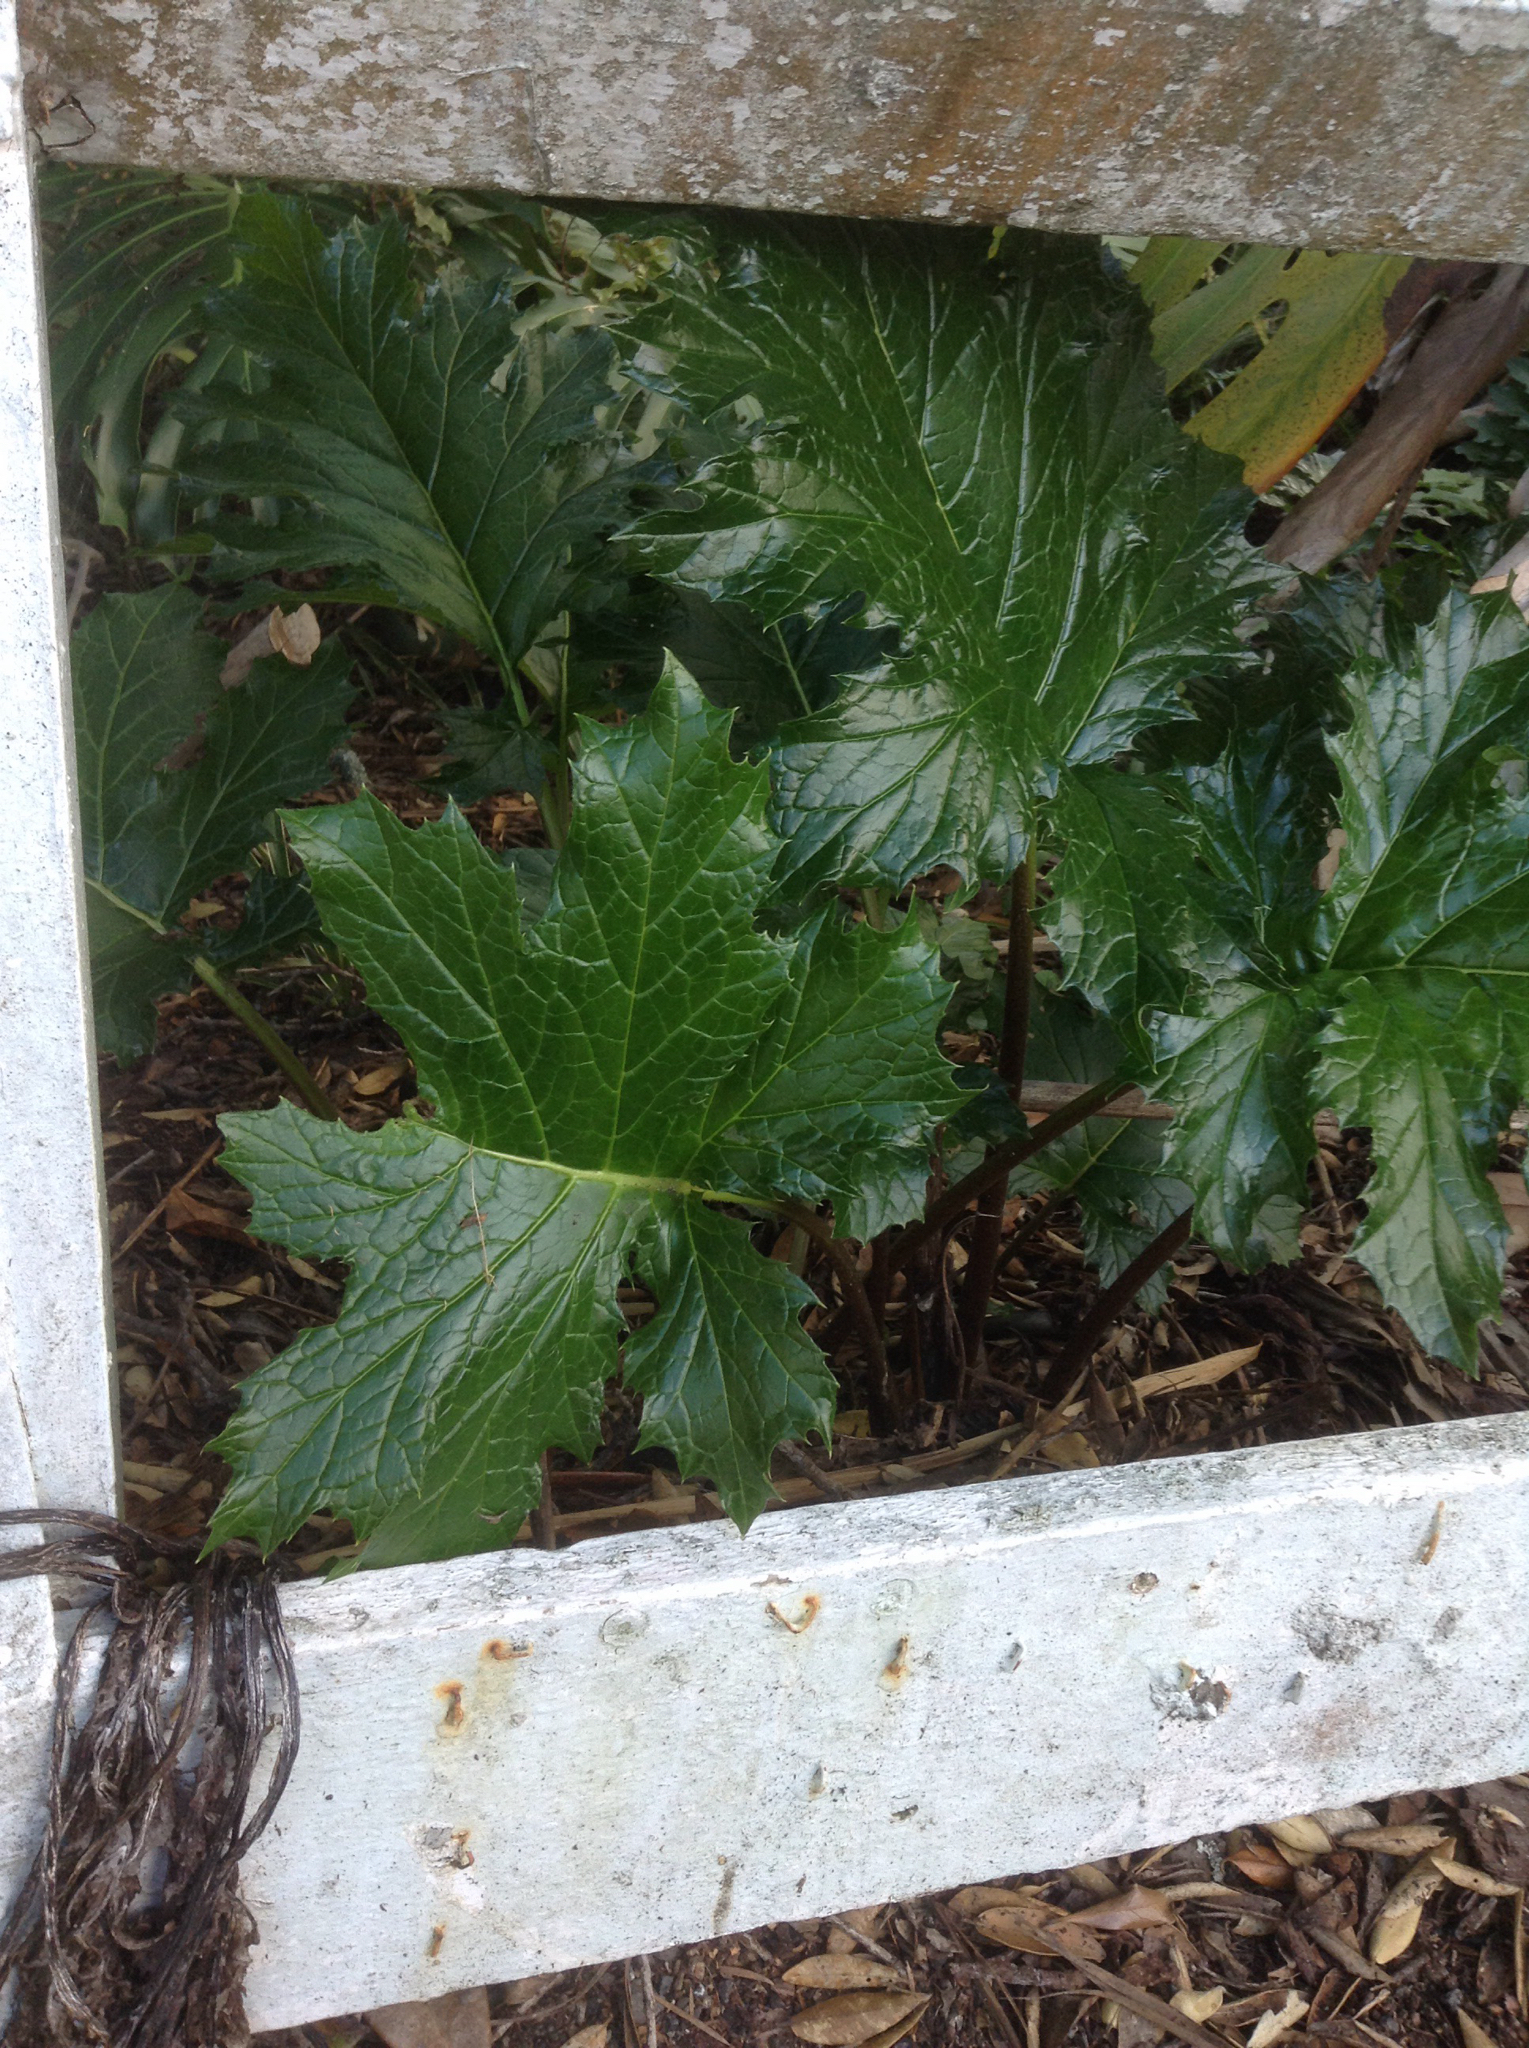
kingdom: Plantae
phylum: Tracheophyta
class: Magnoliopsida
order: Lamiales
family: Acanthaceae
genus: Acanthus
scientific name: Acanthus mollis
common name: Bear's-breech
